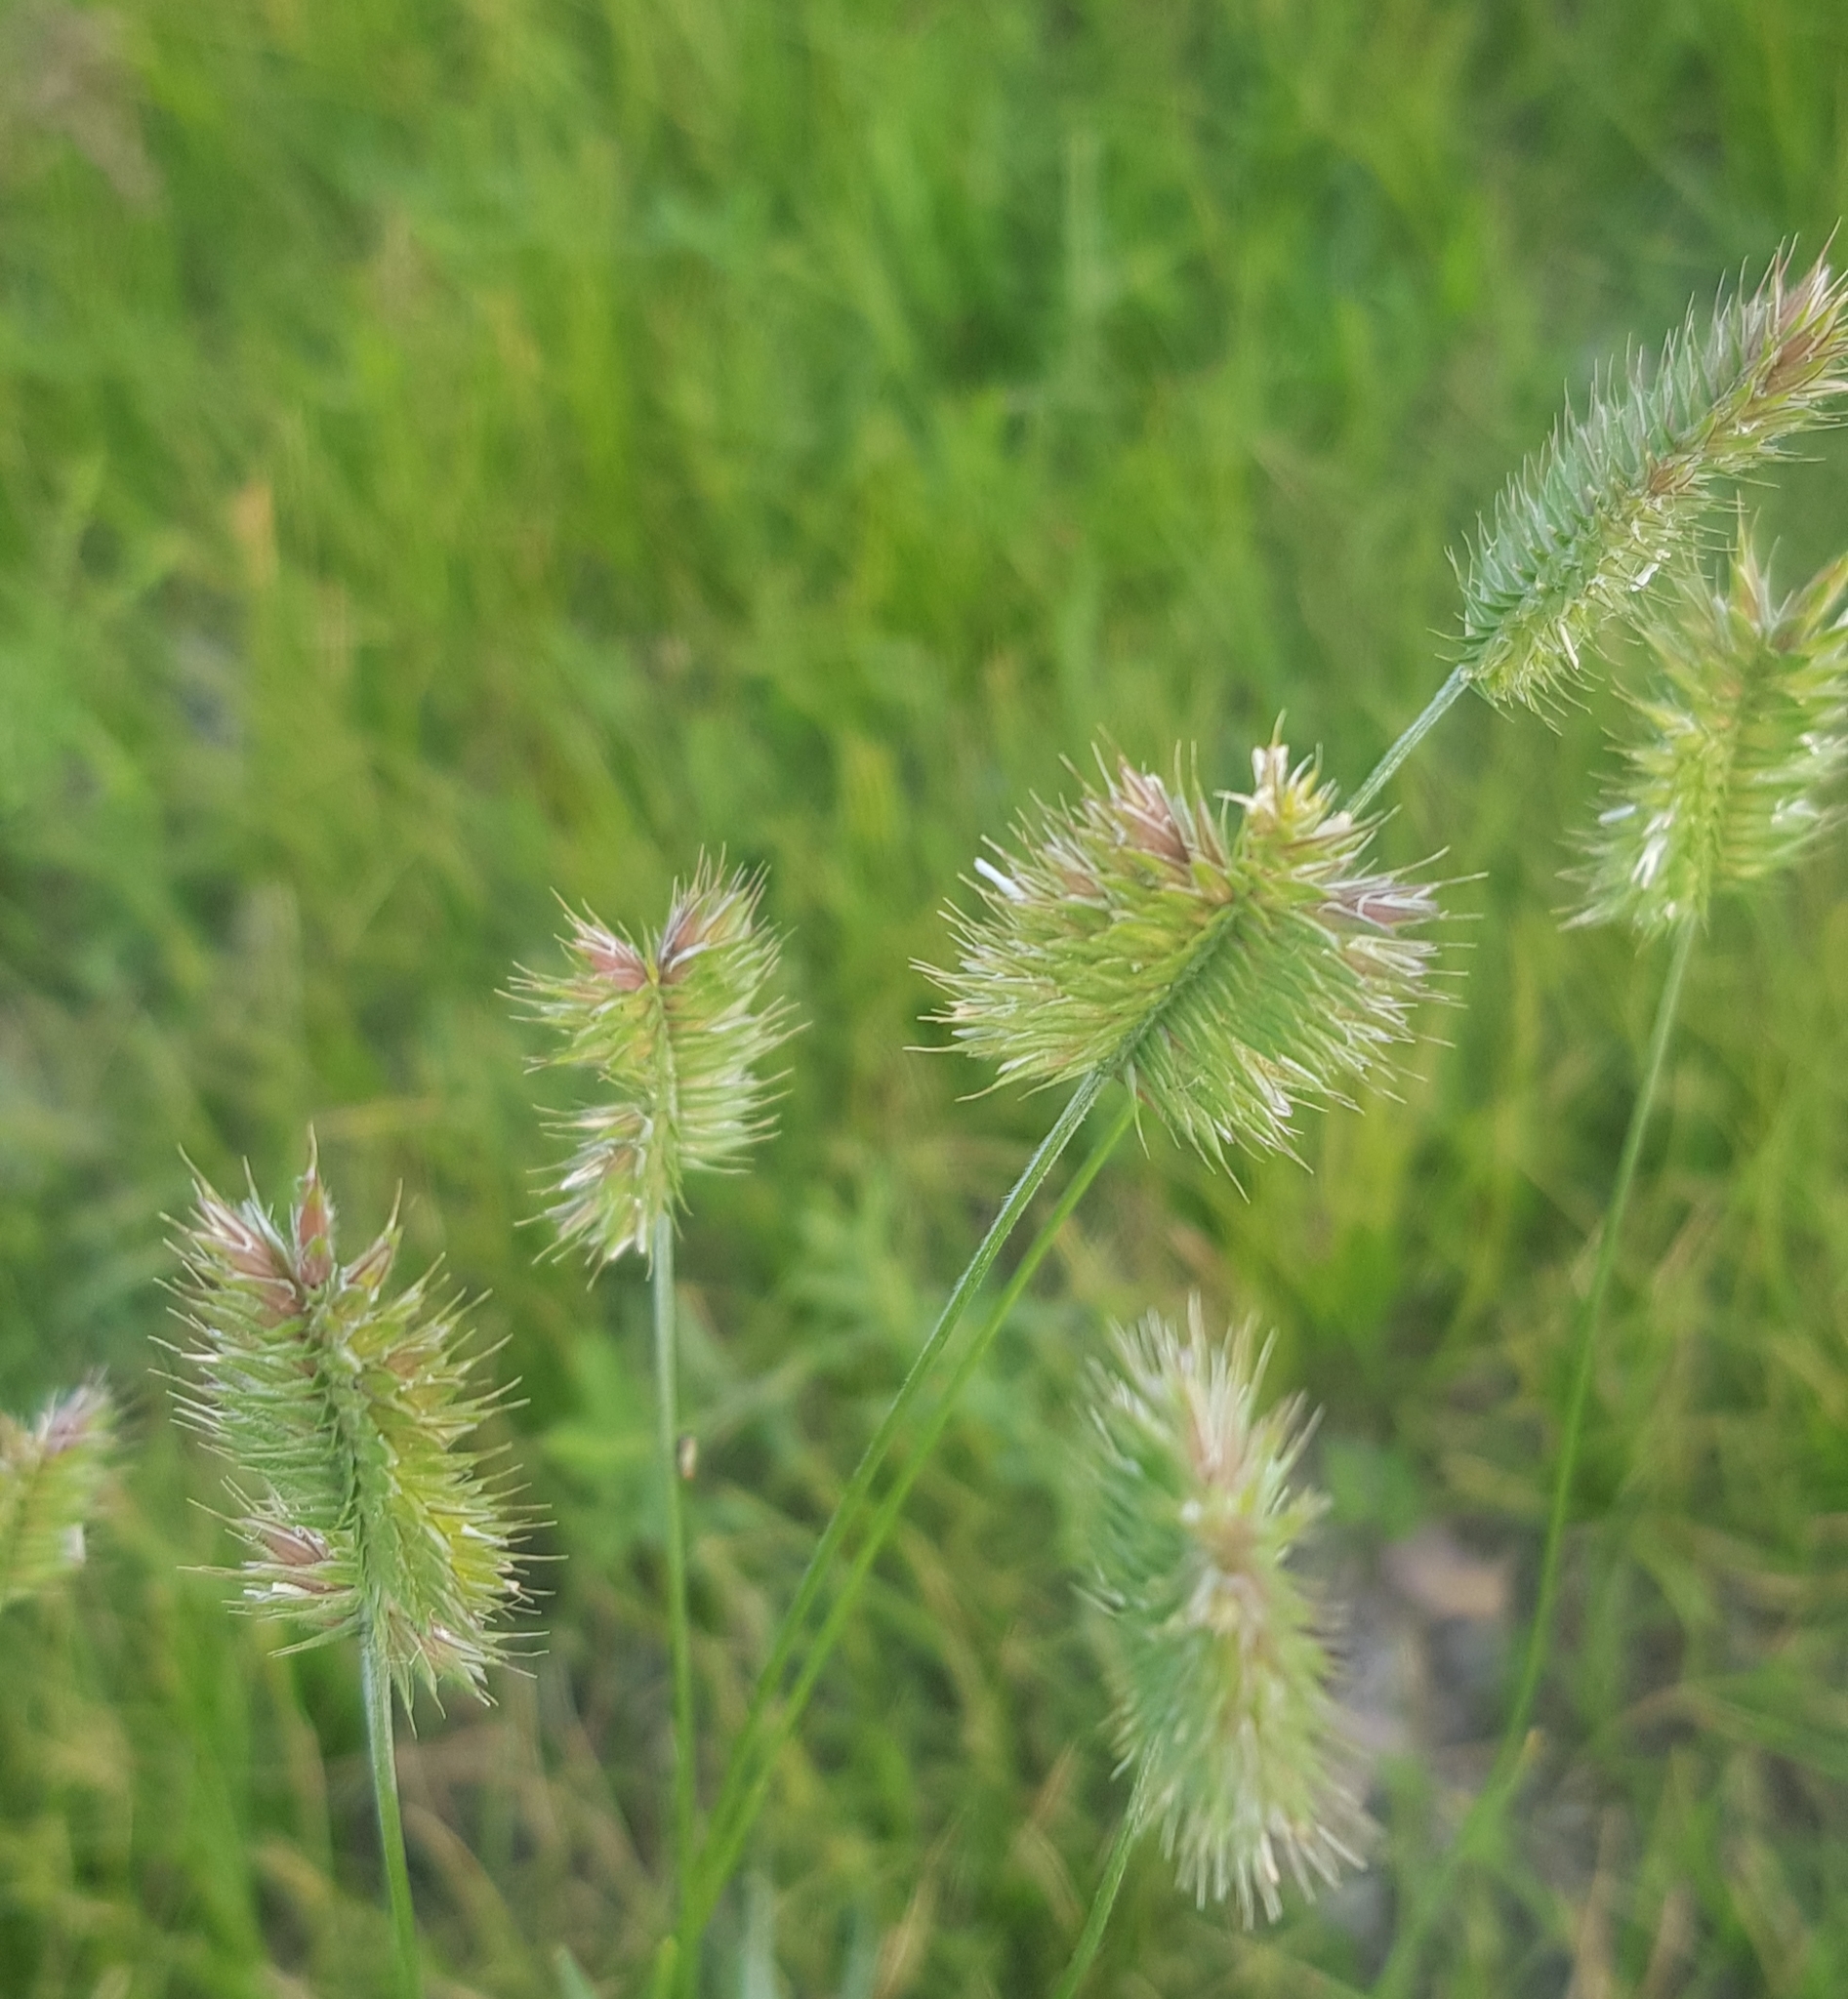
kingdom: Plantae
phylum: Tracheophyta
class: Liliopsida
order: Poales
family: Poaceae
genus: Agropyron
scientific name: Agropyron cristatum
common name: Crested wheatgrass
